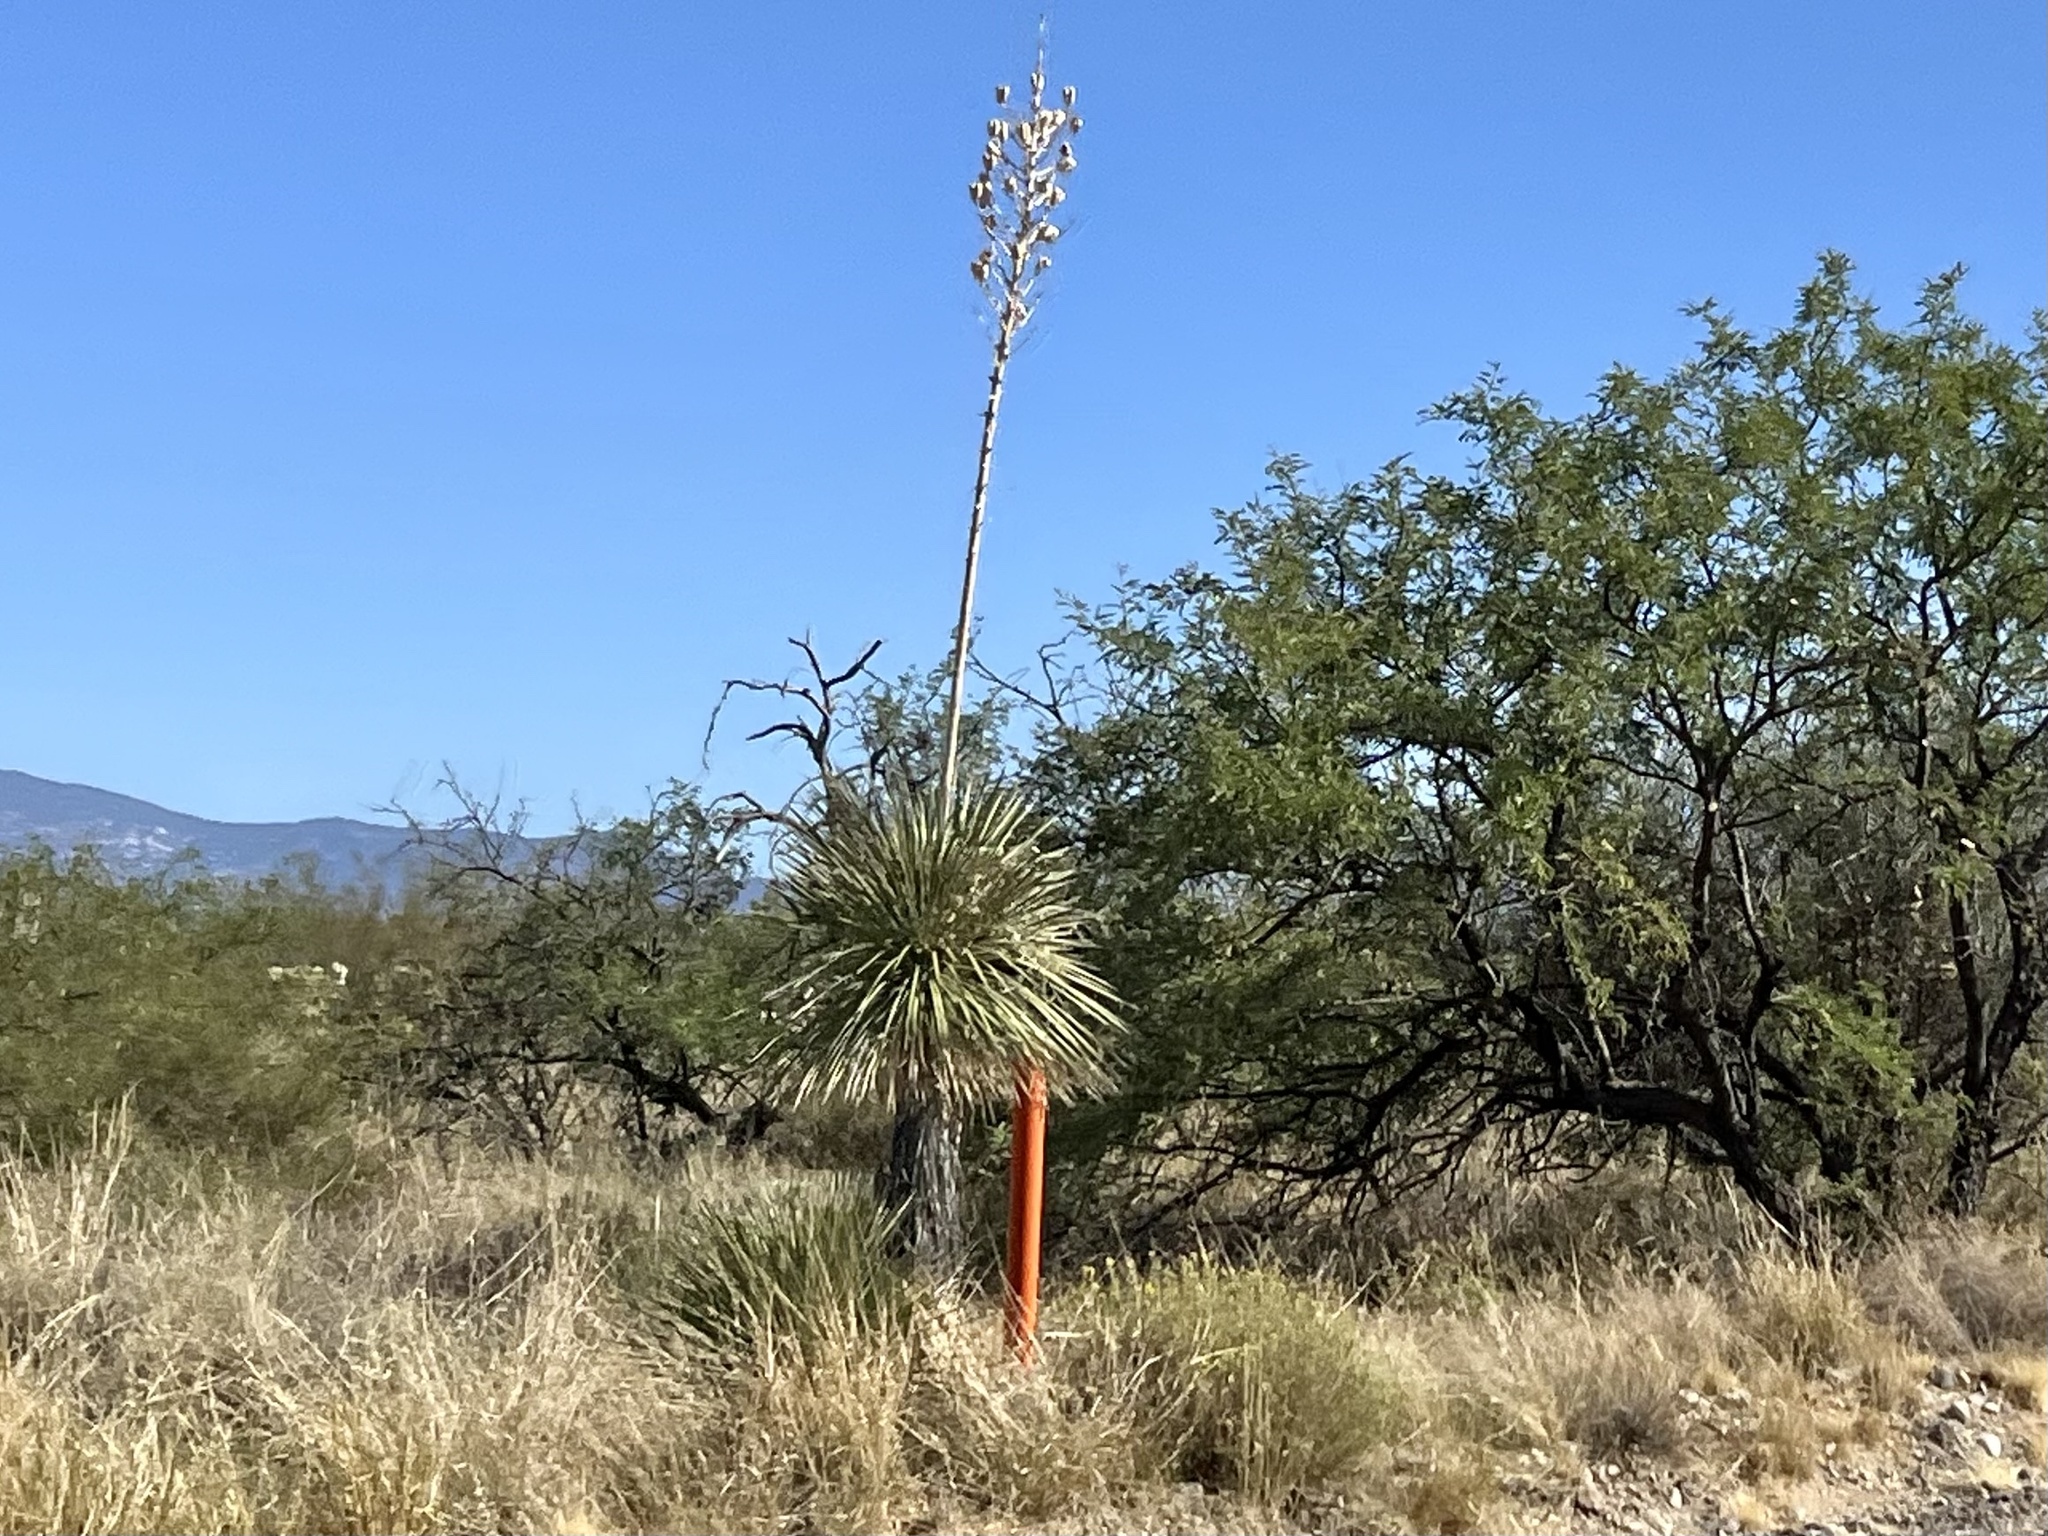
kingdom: Plantae
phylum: Tracheophyta
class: Liliopsida
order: Asparagales
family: Asparagaceae
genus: Yucca
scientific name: Yucca elata
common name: Palmella
